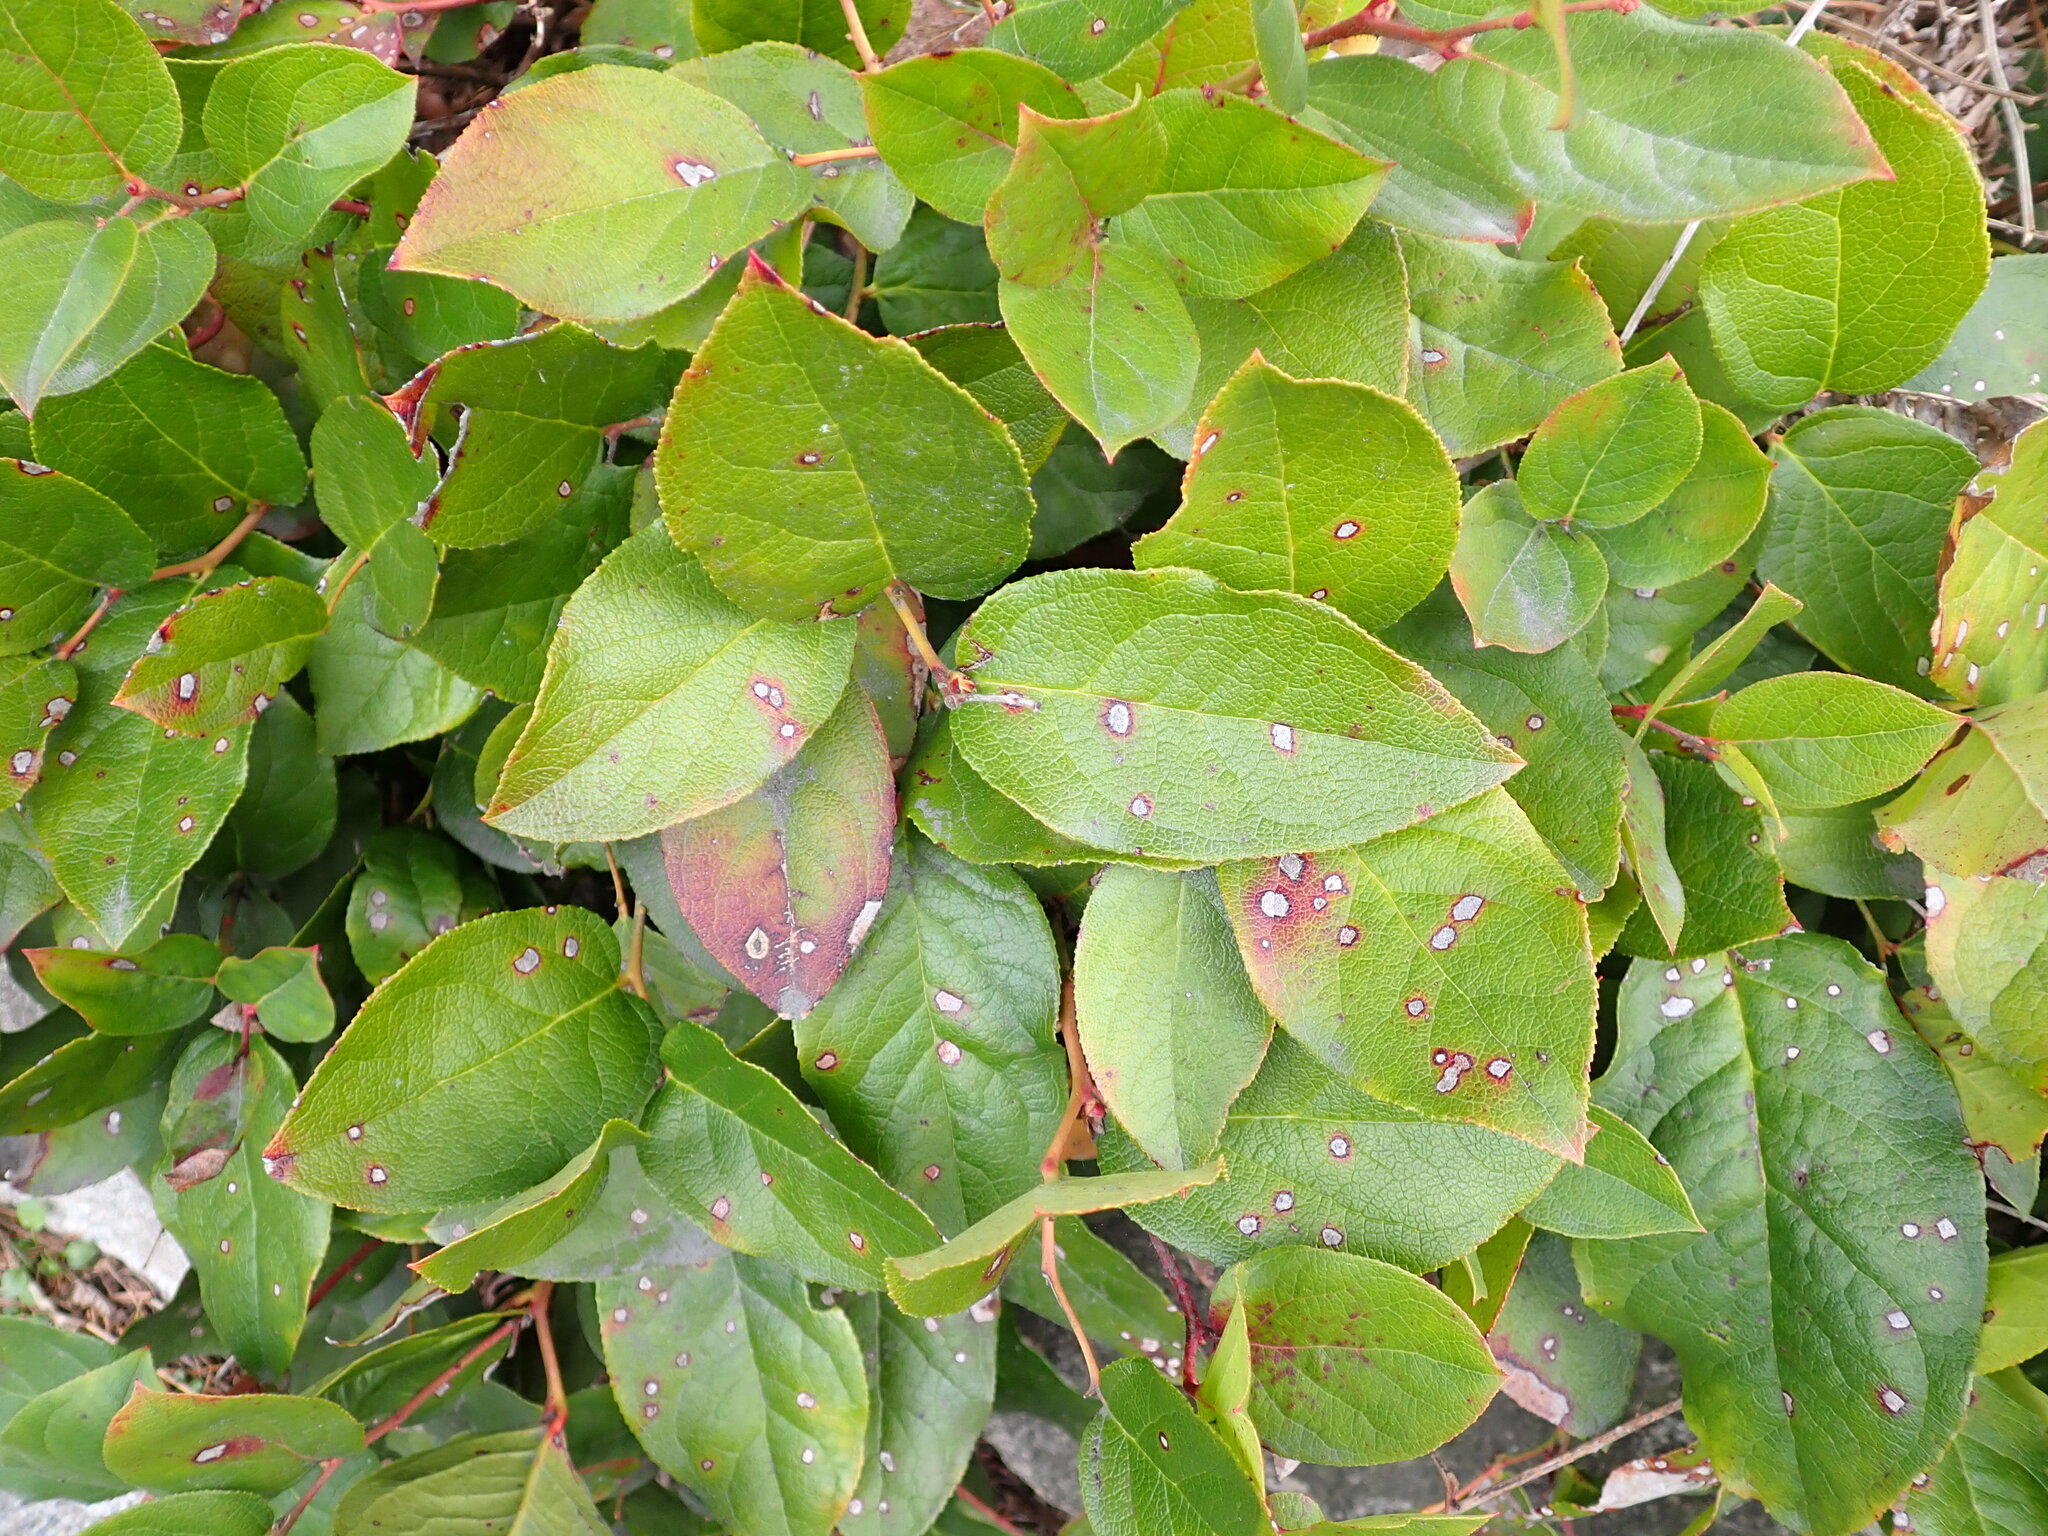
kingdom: Plantae
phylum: Tracheophyta
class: Magnoliopsida
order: Ericales
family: Ericaceae
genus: Gaultheria
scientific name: Gaultheria shallon
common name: Shallon
